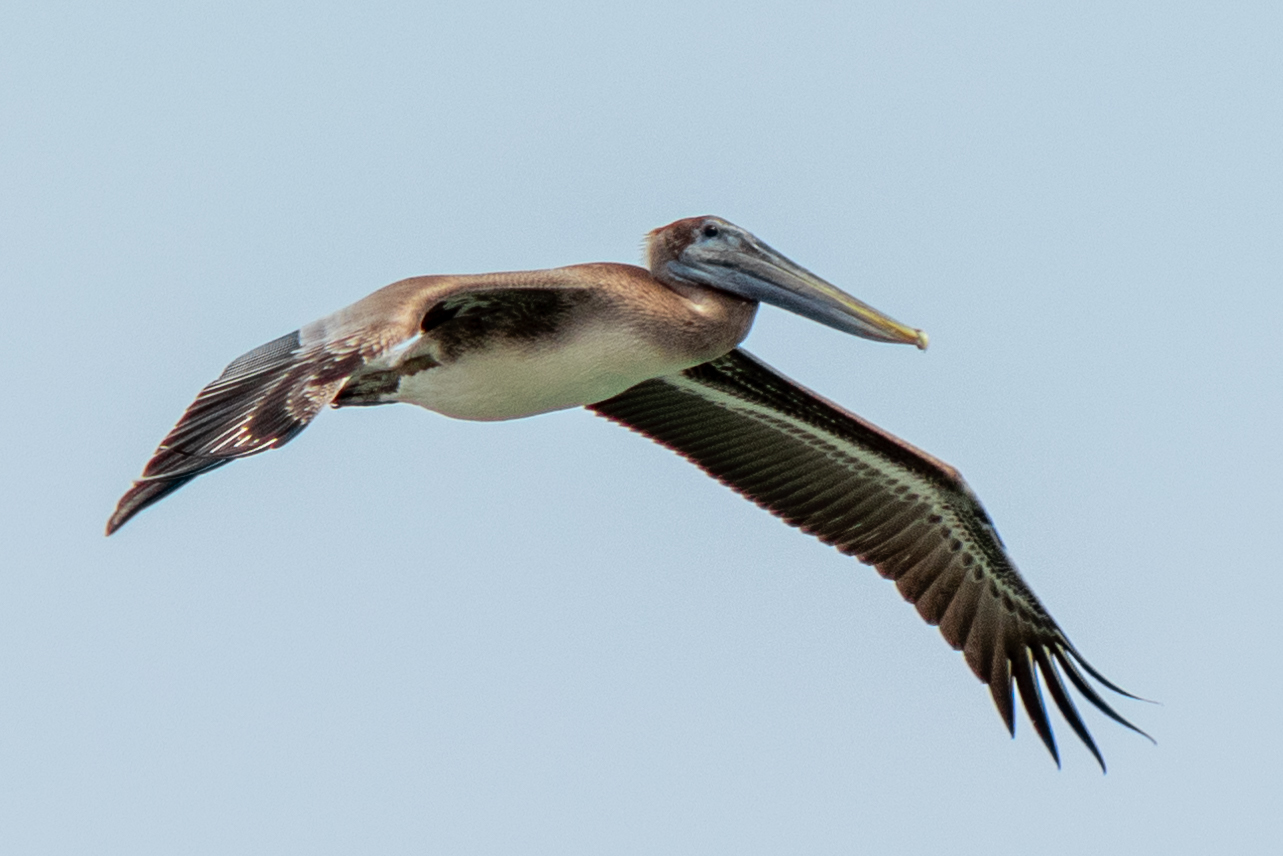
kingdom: Animalia
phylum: Chordata
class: Aves
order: Pelecaniformes
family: Pelecanidae
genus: Pelecanus
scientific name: Pelecanus occidentalis
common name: Brown pelican
